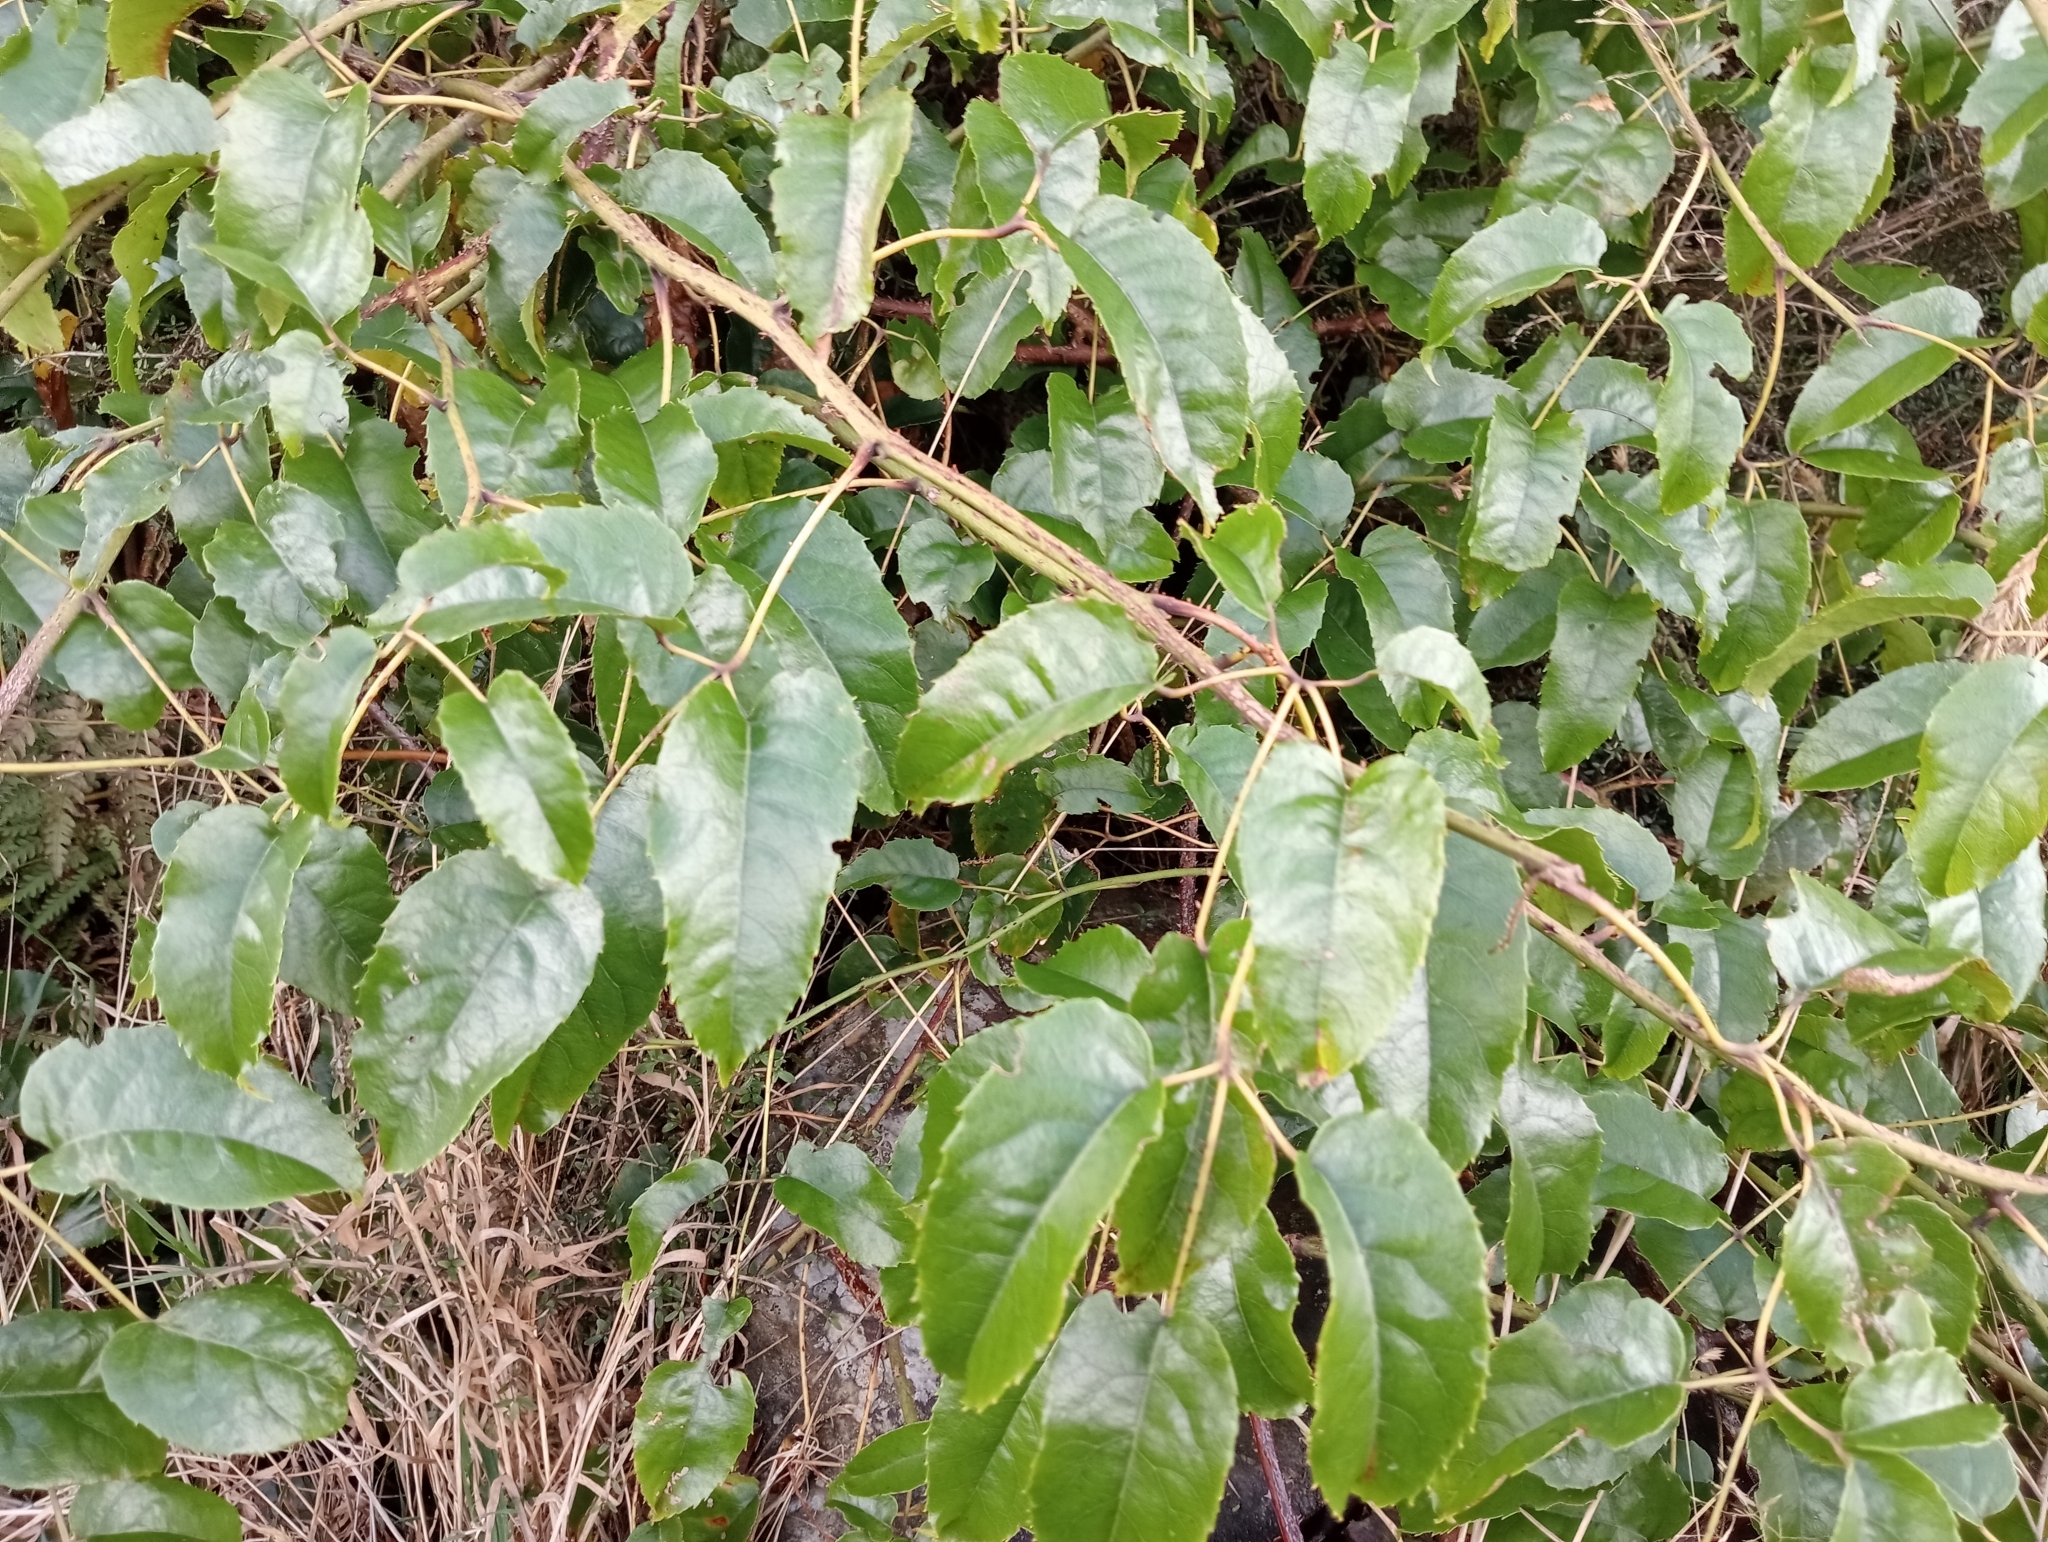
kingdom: Plantae
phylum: Tracheophyta
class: Magnoliopsida
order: Rosales
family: Rosaceae
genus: Rubus
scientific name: Rubus cissoides
